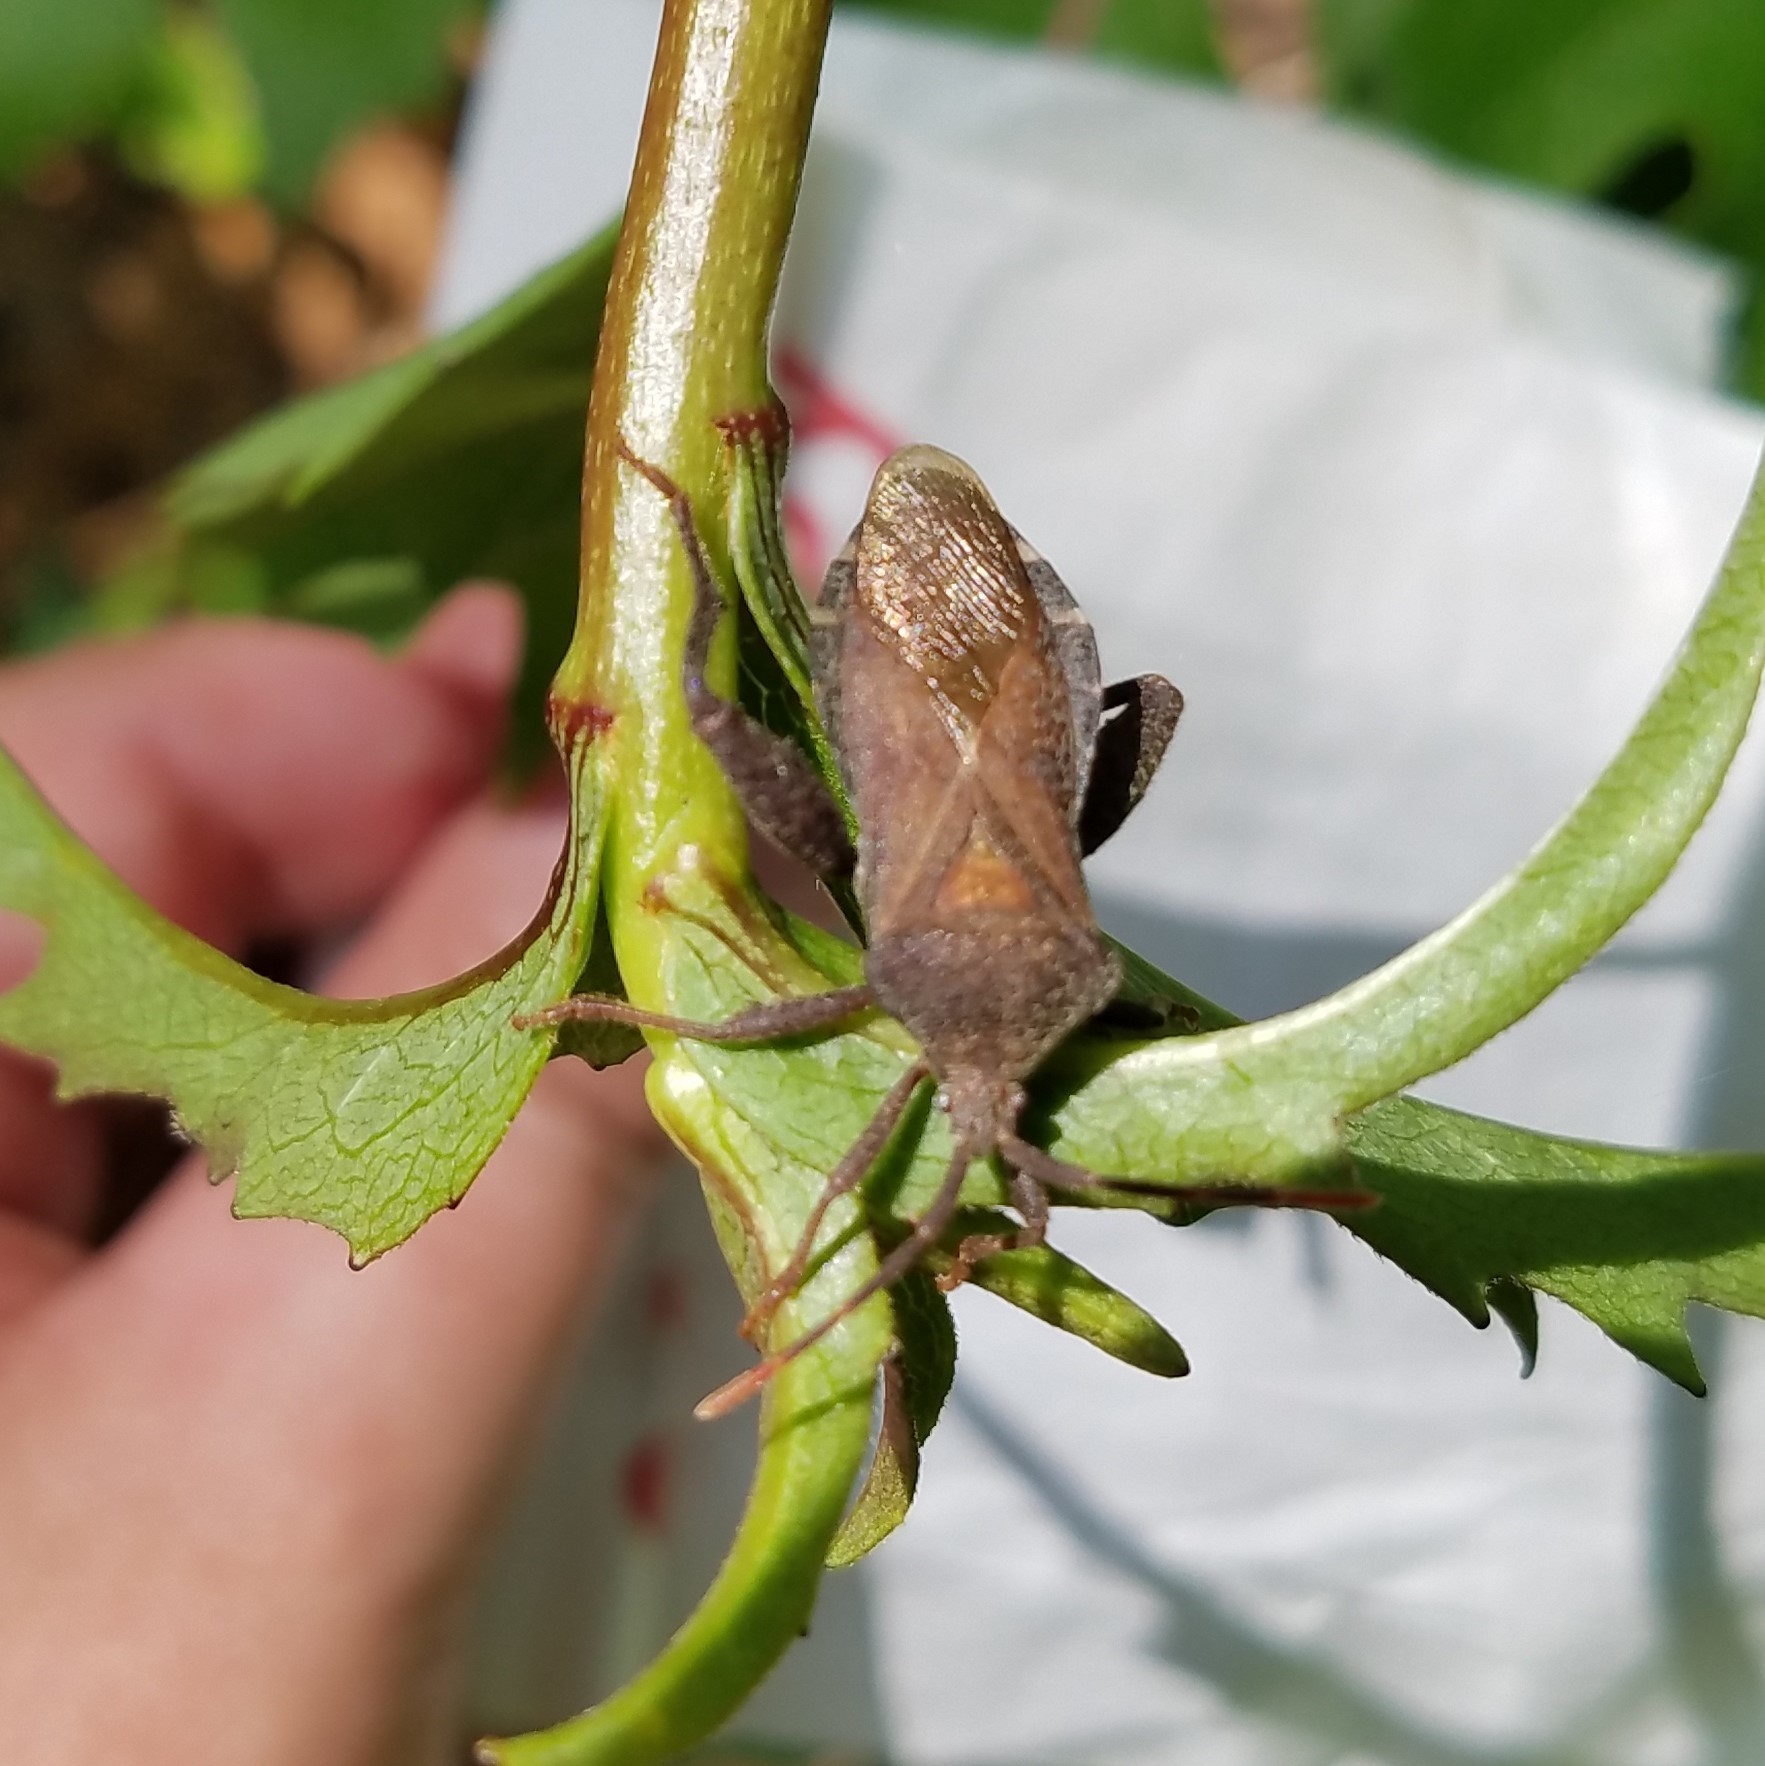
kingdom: Animalia
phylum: Arthropoda
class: Insecta
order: Hemiptera
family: Coreidae
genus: Piezogaster
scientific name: Piezogaster calcarator
